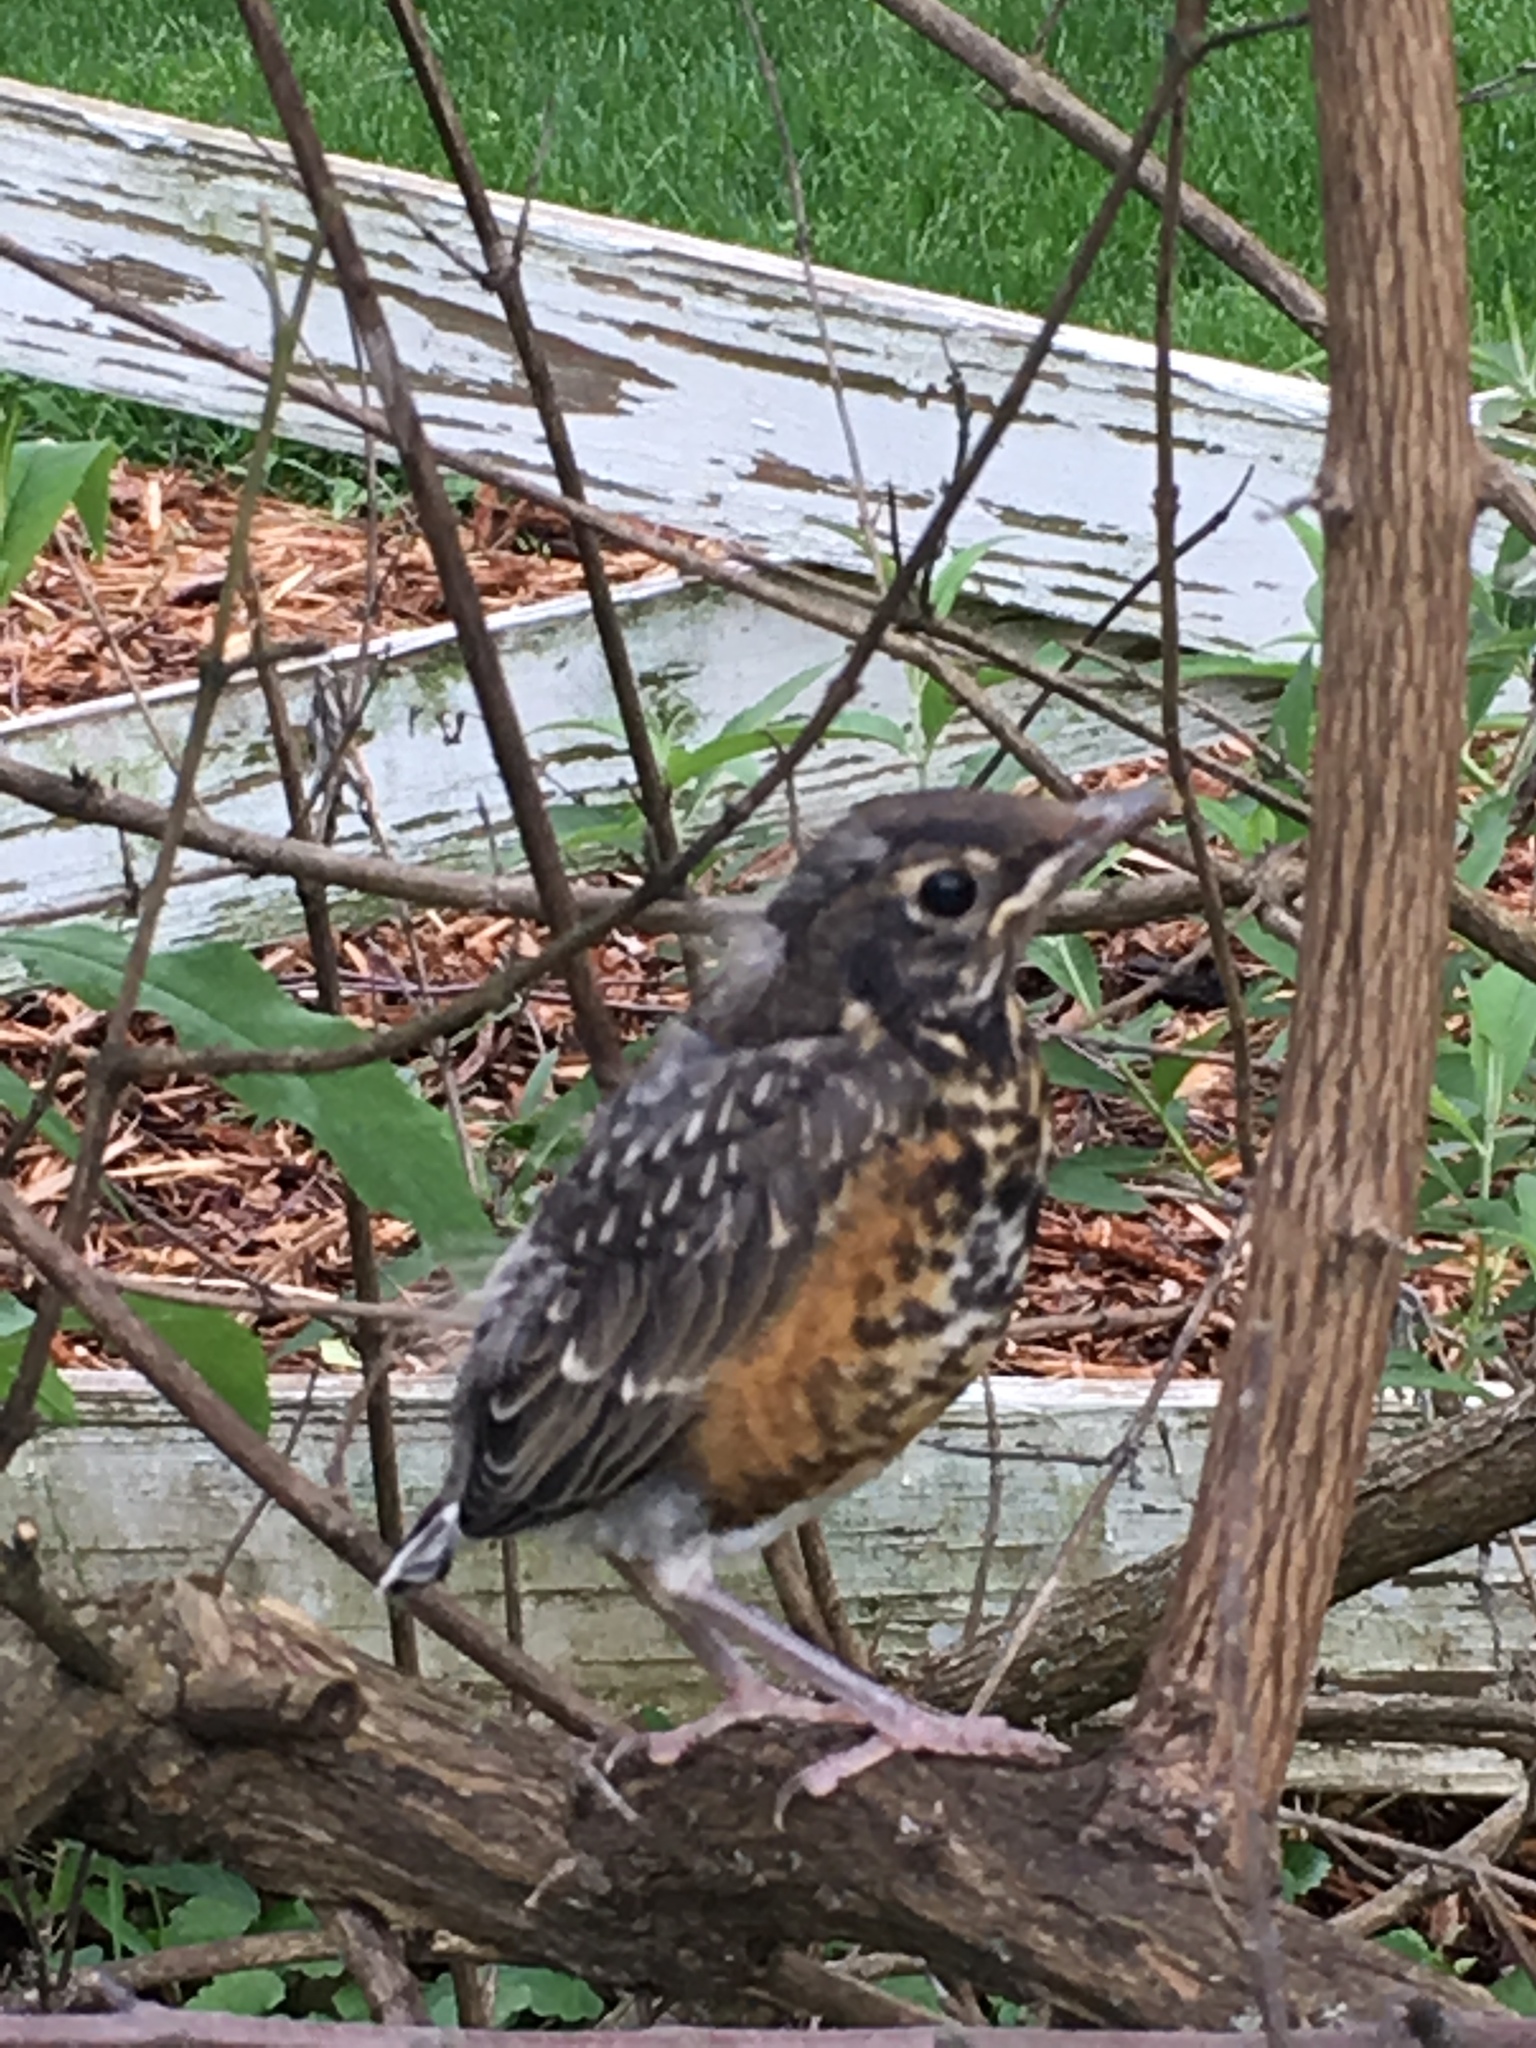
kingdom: Animalia
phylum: Chordata
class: Aves
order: Passeriformes
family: Turdidae
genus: Turdus
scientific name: Turdus migratorius
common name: American robin
